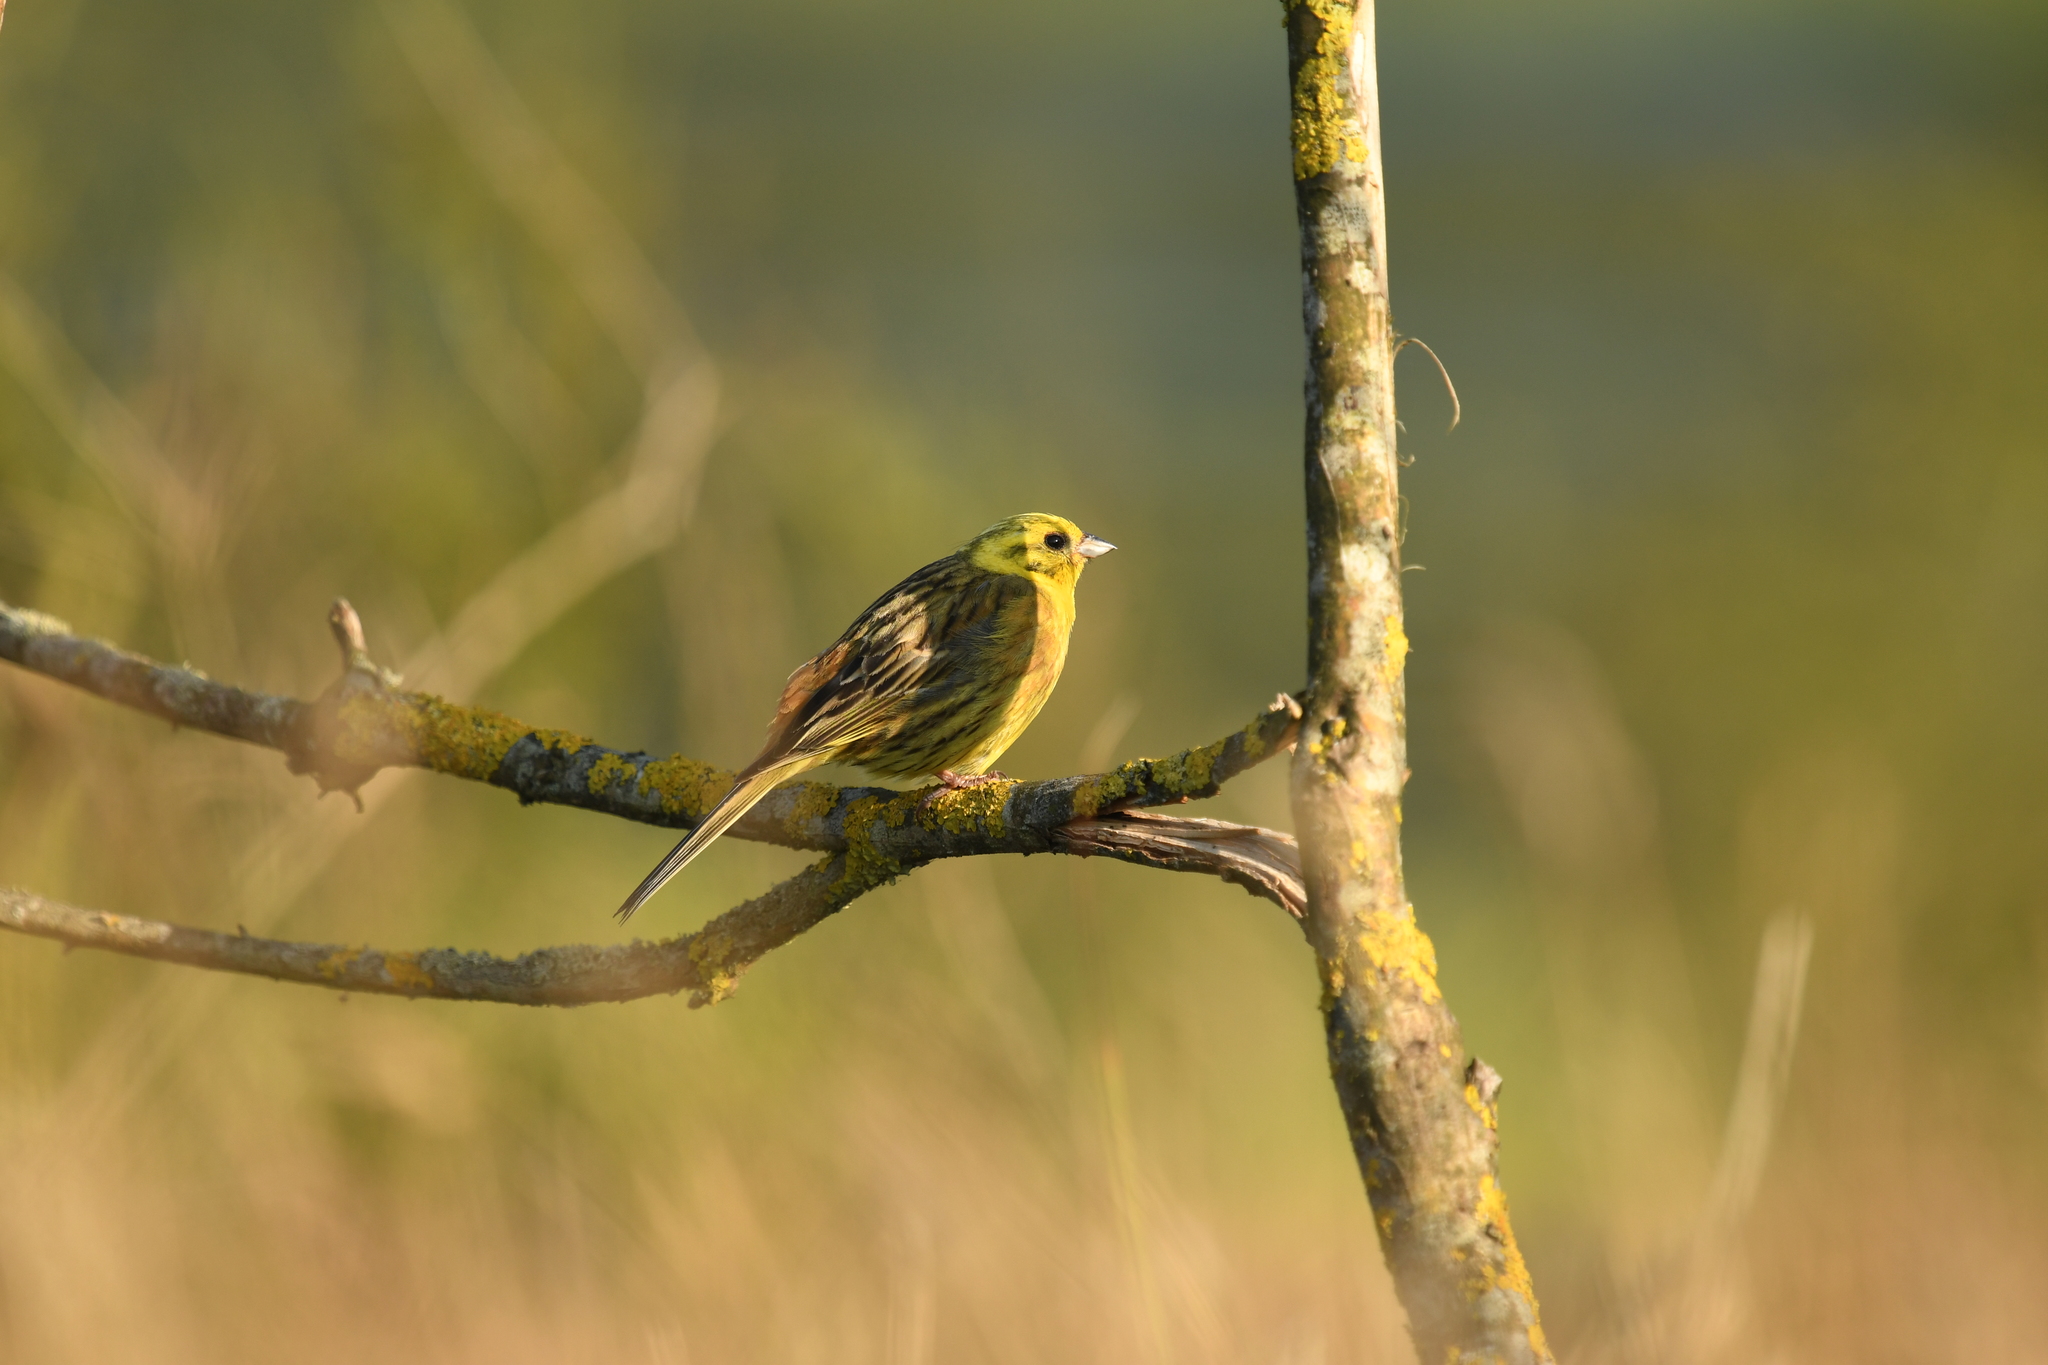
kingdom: Animalia
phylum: Chordata
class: Aves
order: Passeriformes
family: Emberizidae
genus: Emberiza
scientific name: Emberiza citrinella
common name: Yellowhammer
